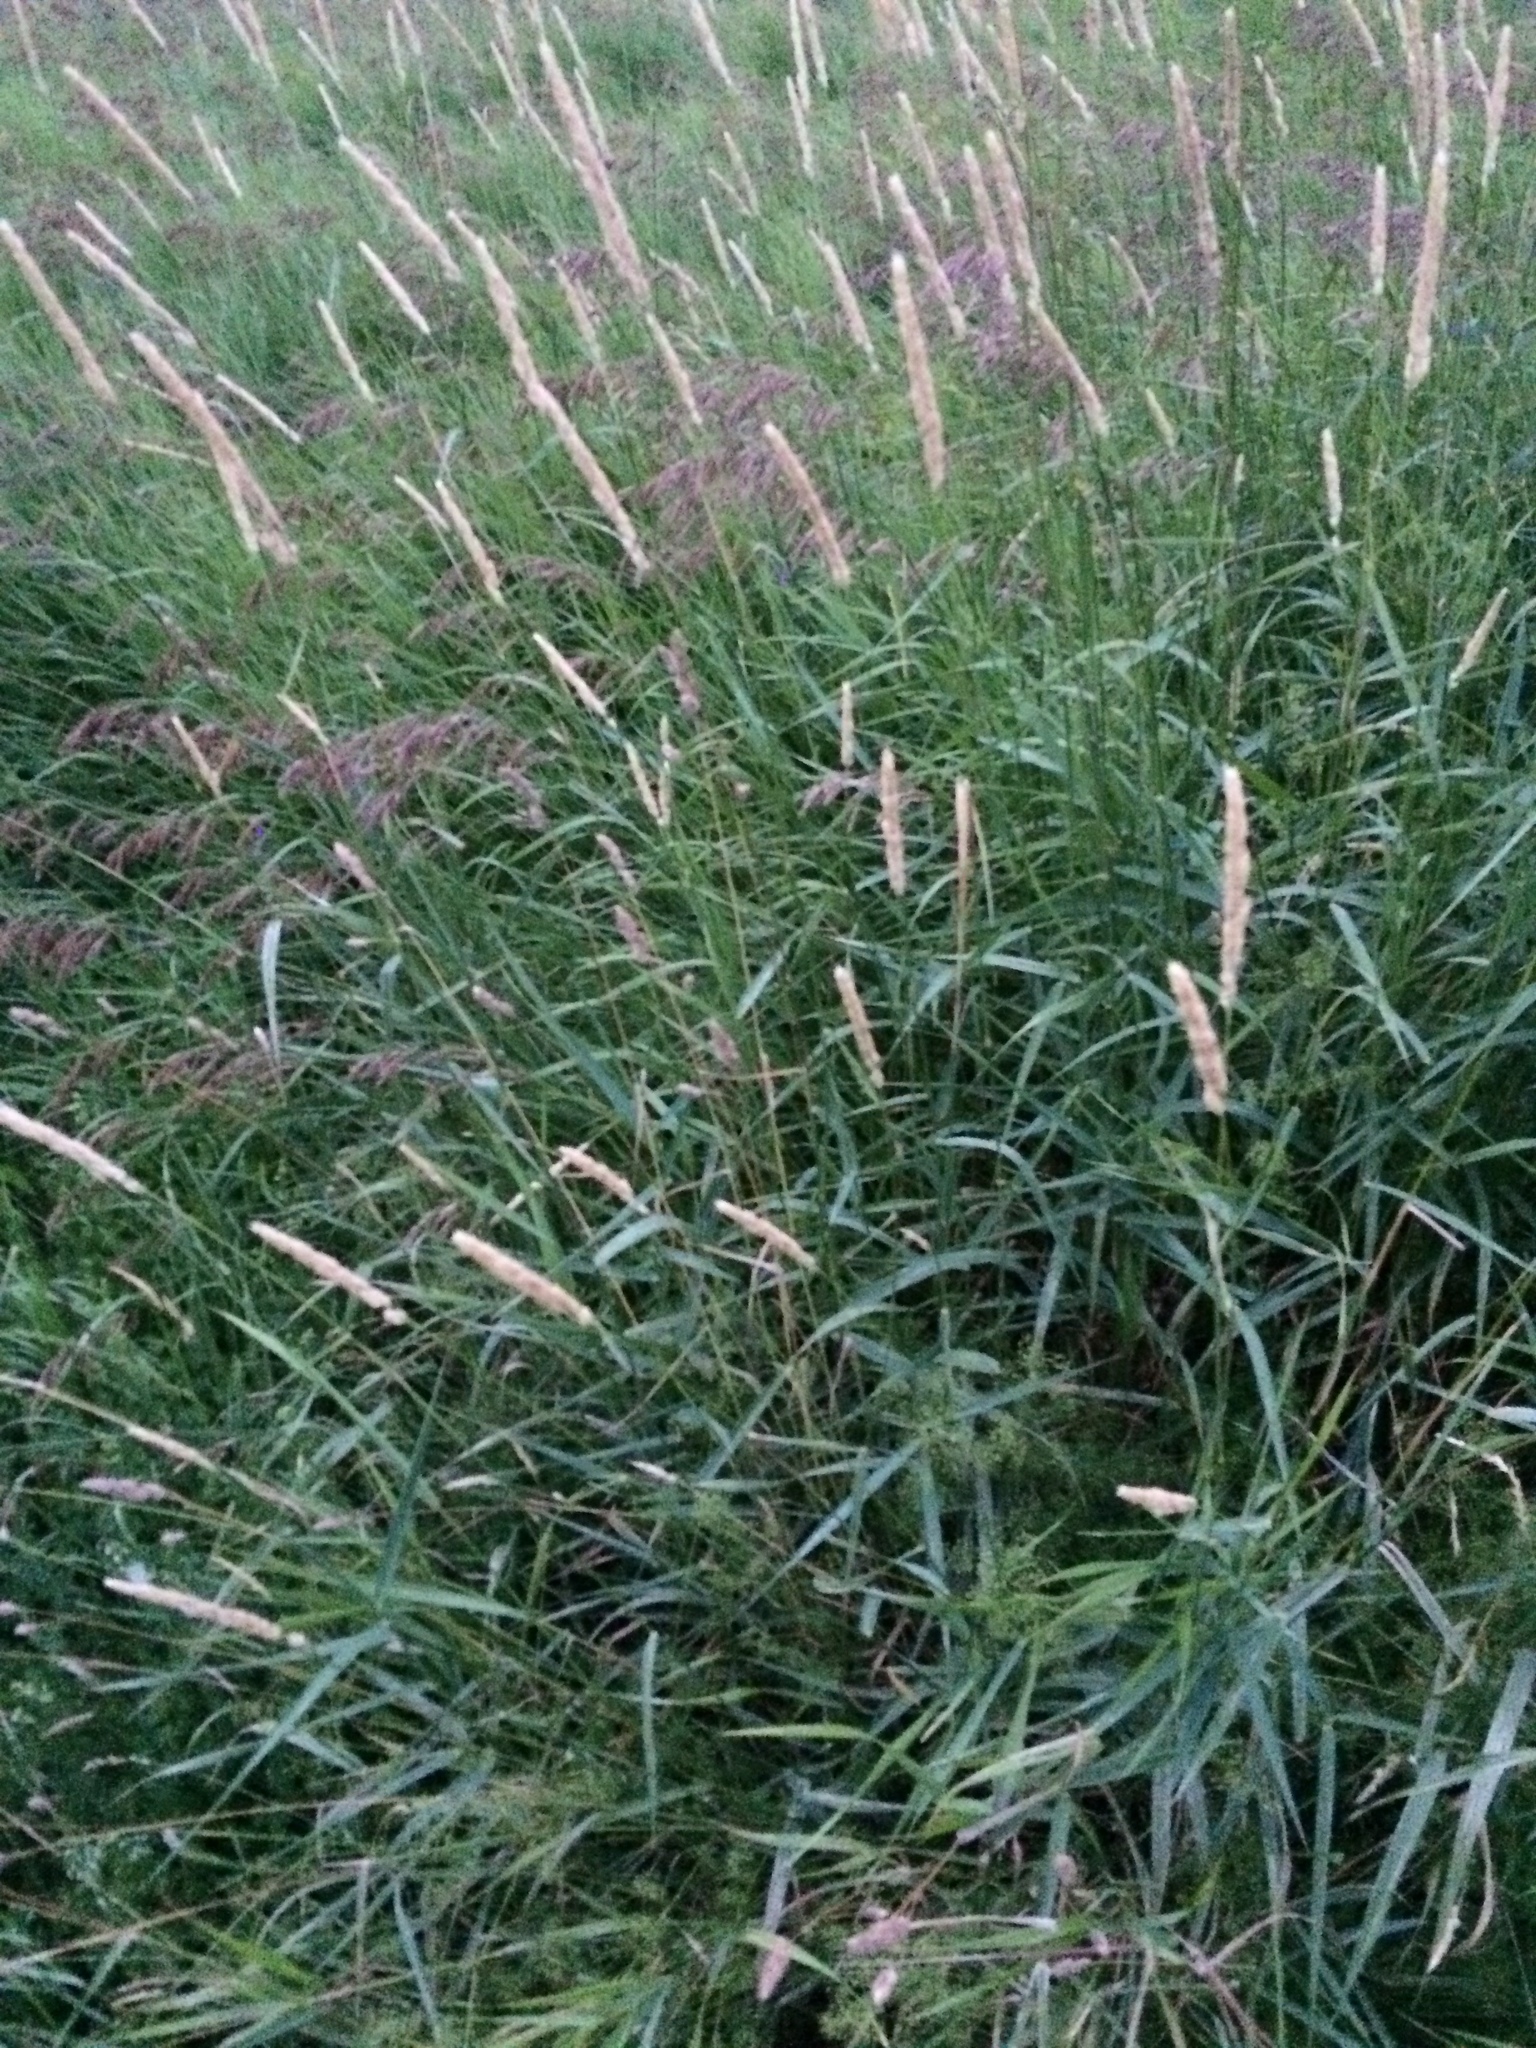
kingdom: Plantae
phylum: Tracheophyta
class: Liliopsida
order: Poales
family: Poaceae
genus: Phalaris
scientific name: Phalaris arundinacea
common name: Reed canary-grass
